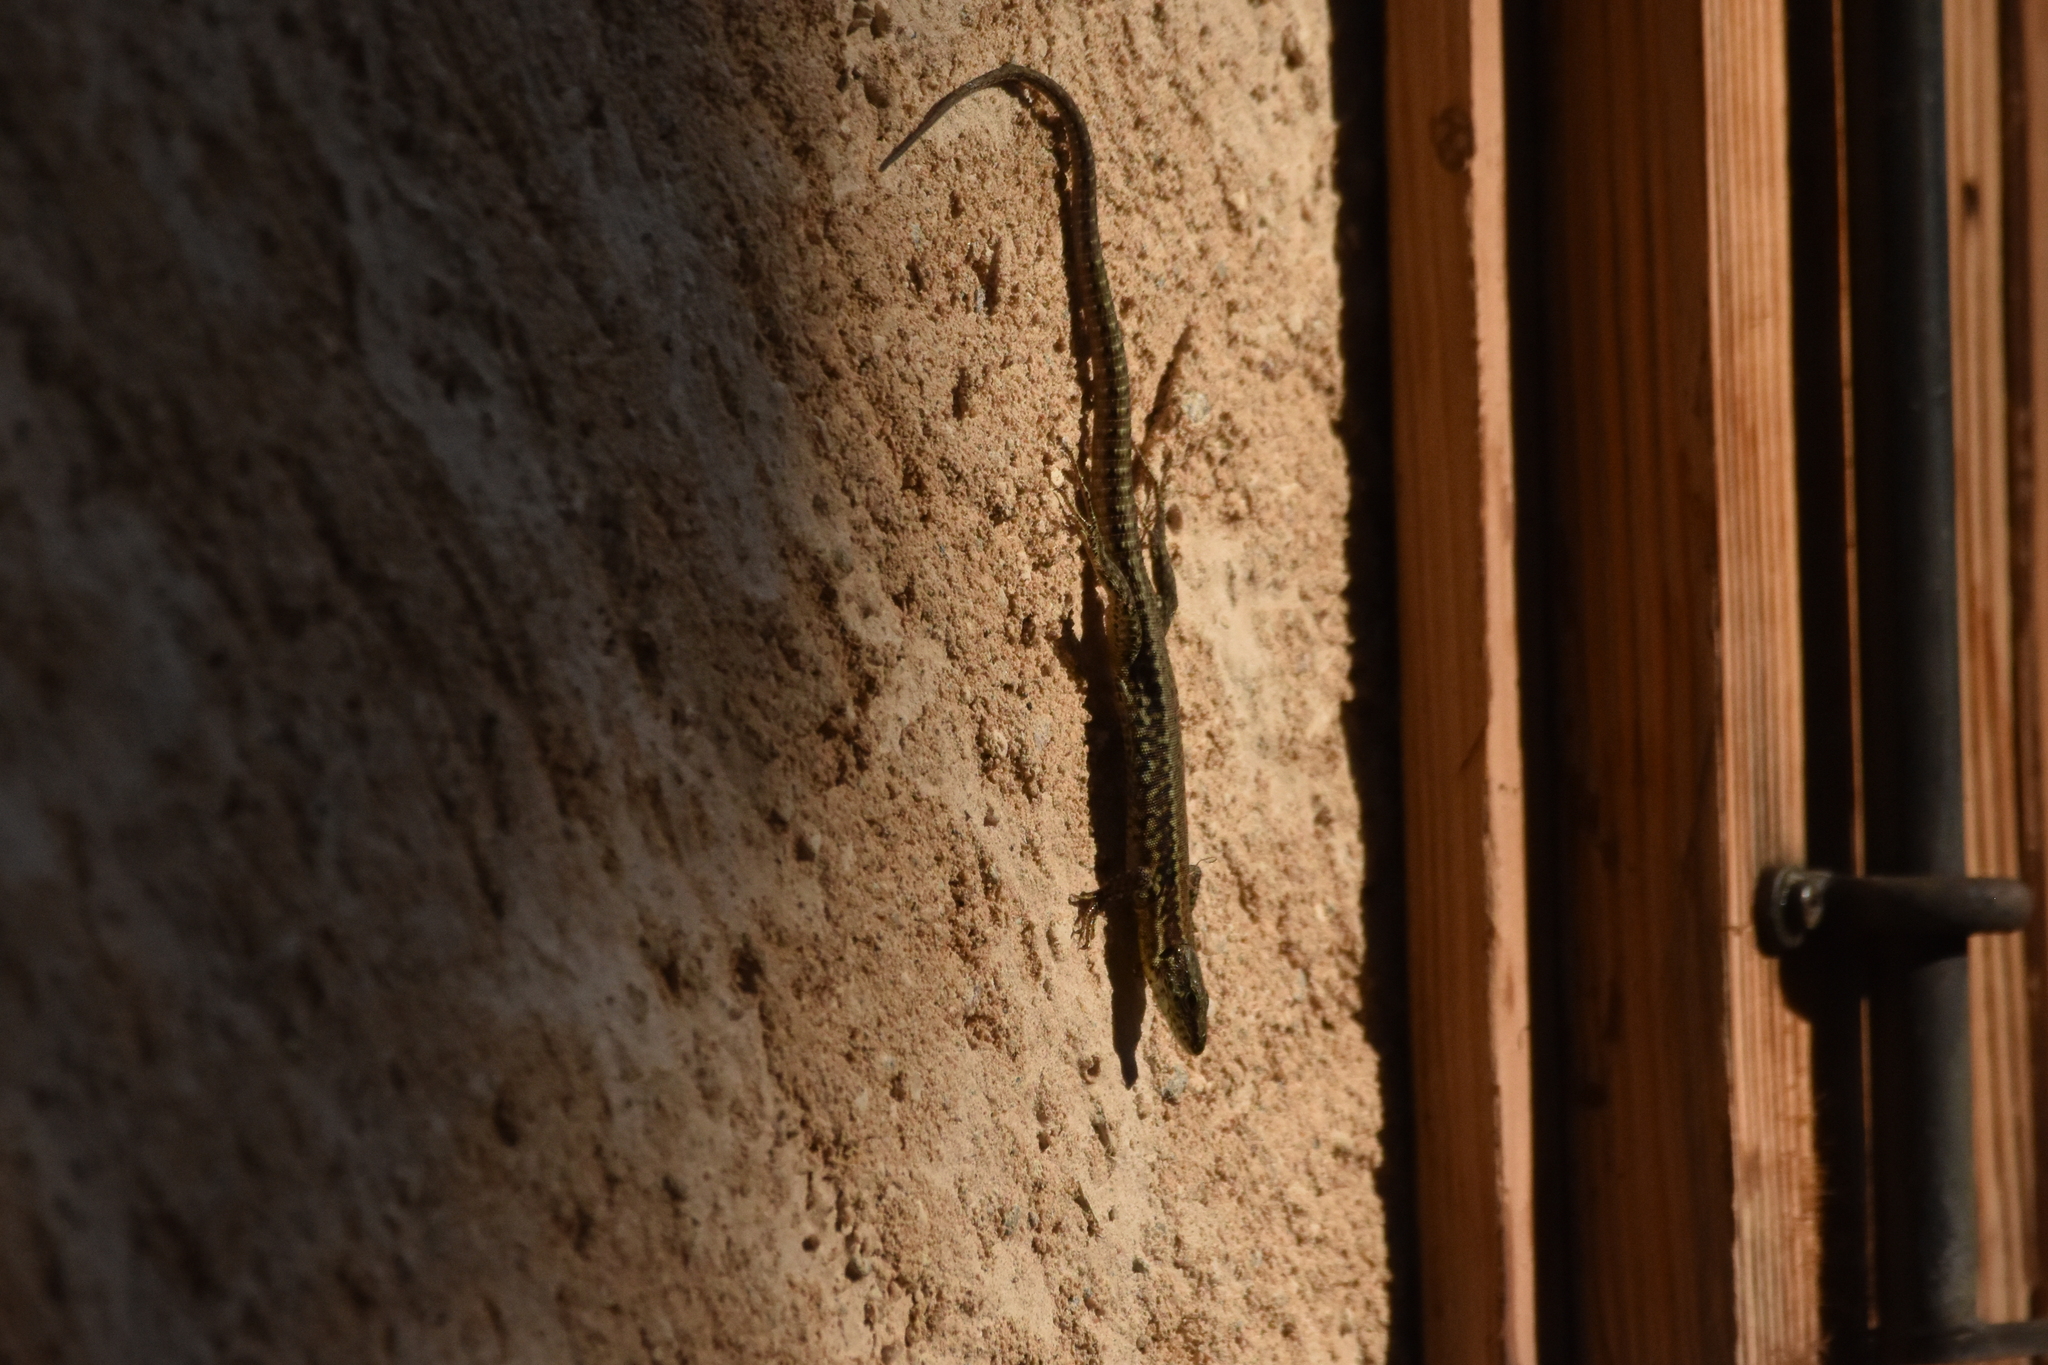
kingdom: Animalia
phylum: Chordata
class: Squamata
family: Lacertidae
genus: Podarcis
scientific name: Podarcis muralis
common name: Common wall lizard
